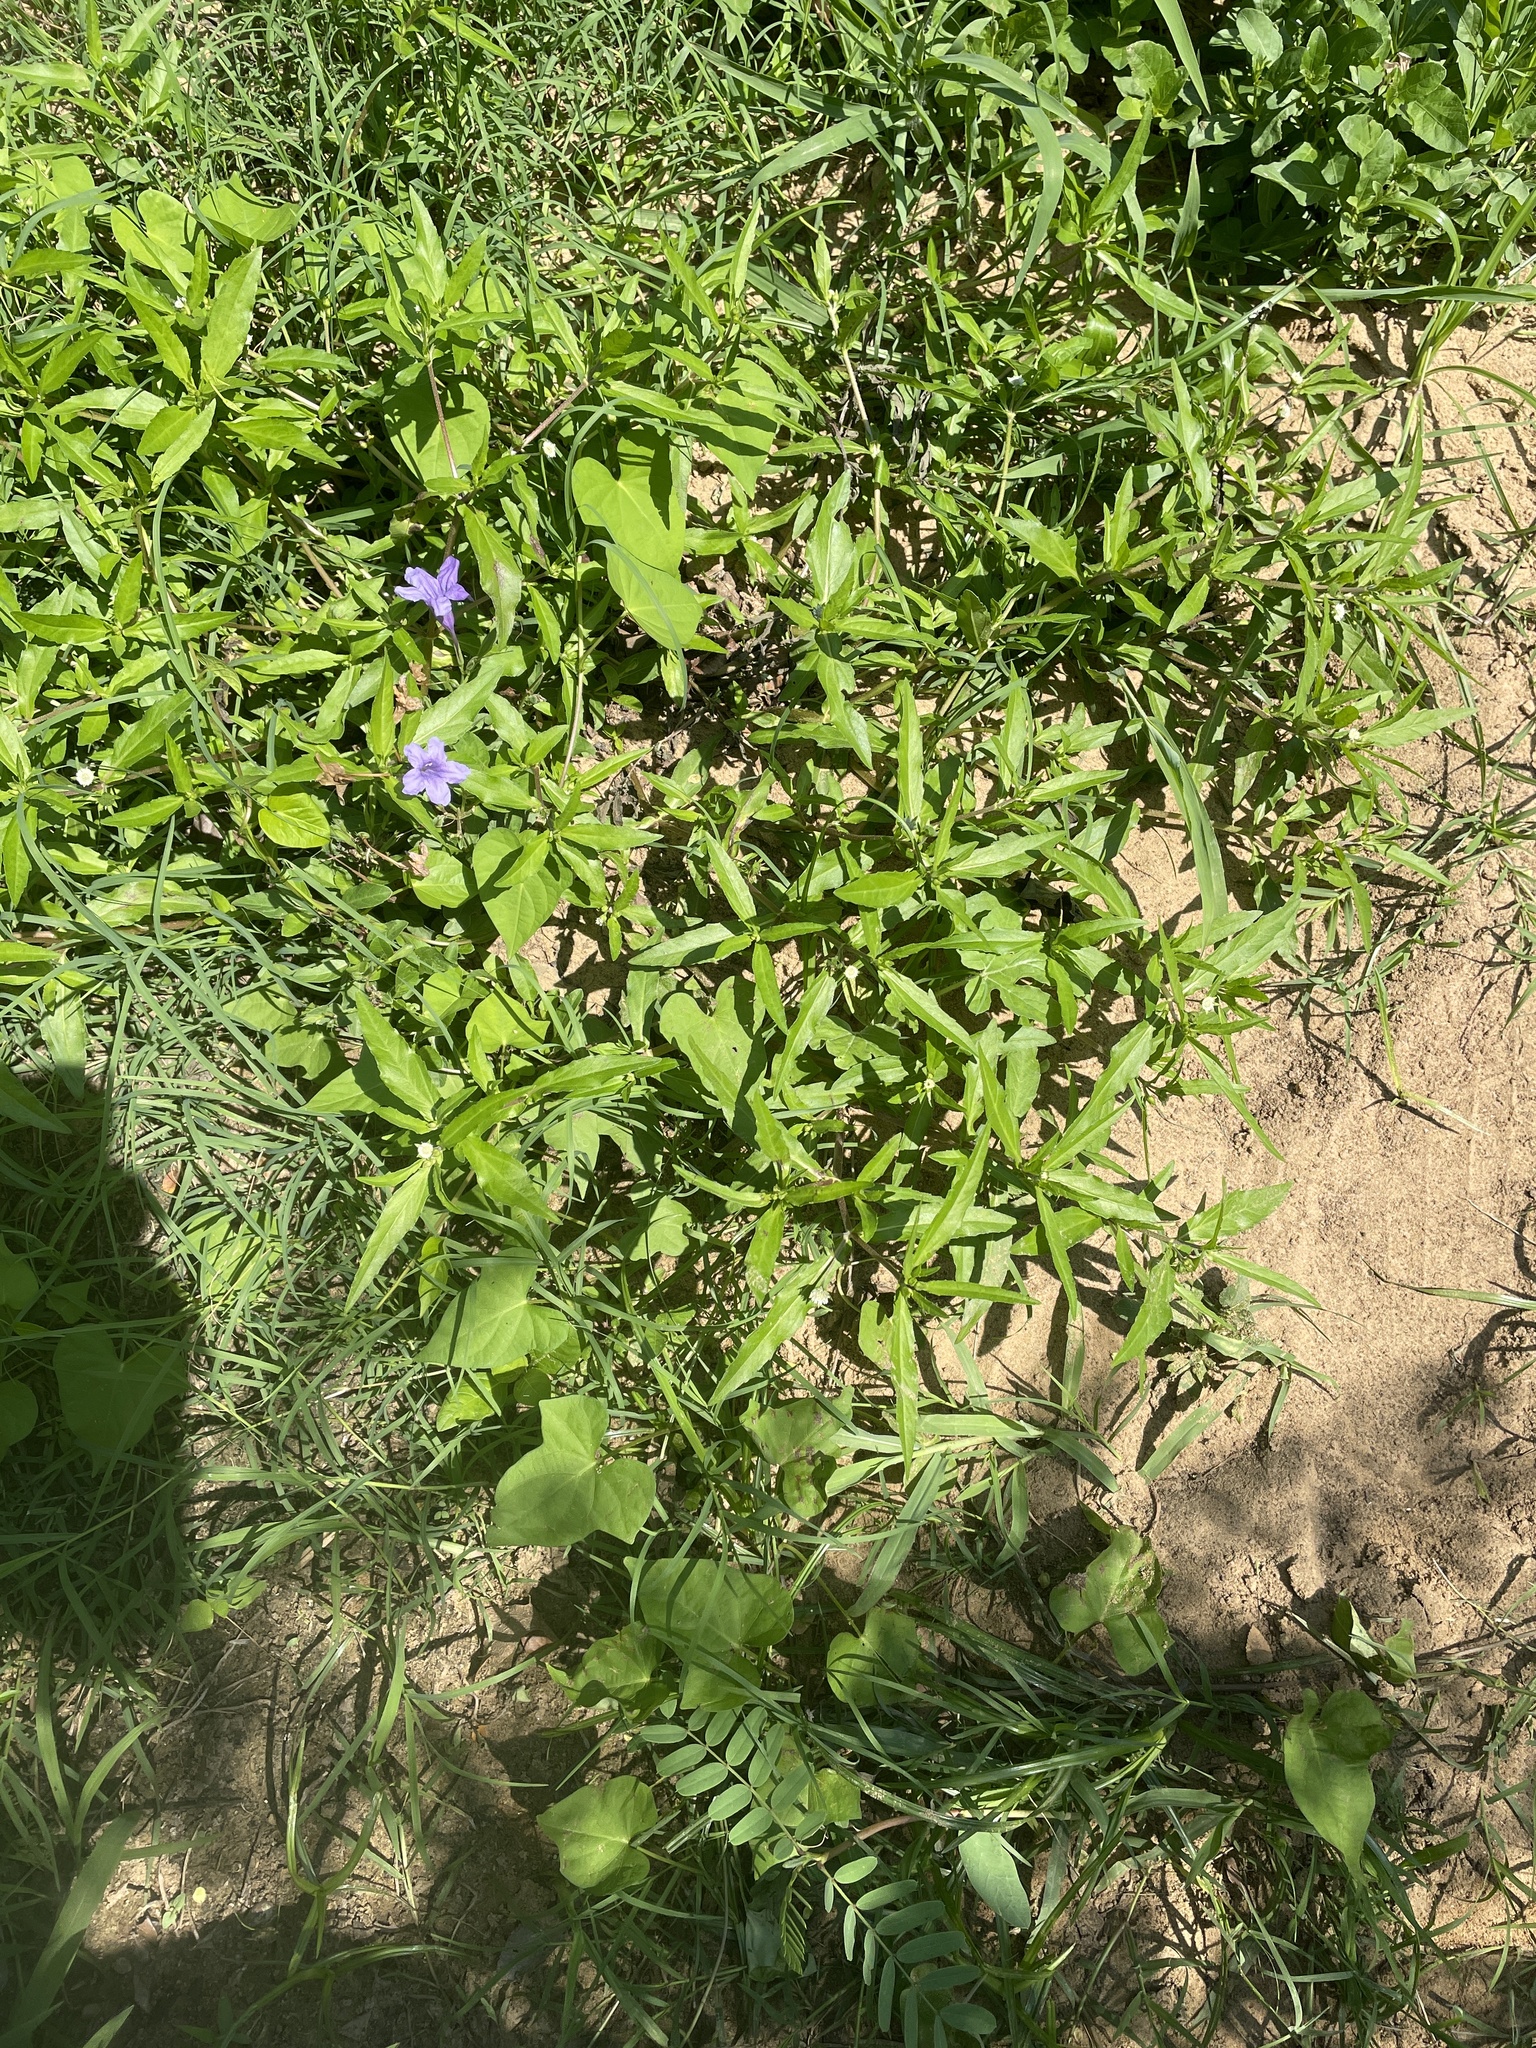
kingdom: Plantae
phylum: Tracheophyta
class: Magnoliopsida
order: Asterales
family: Asteraceae
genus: Eclipta
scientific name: Eclipta prostrata
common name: False daisy
